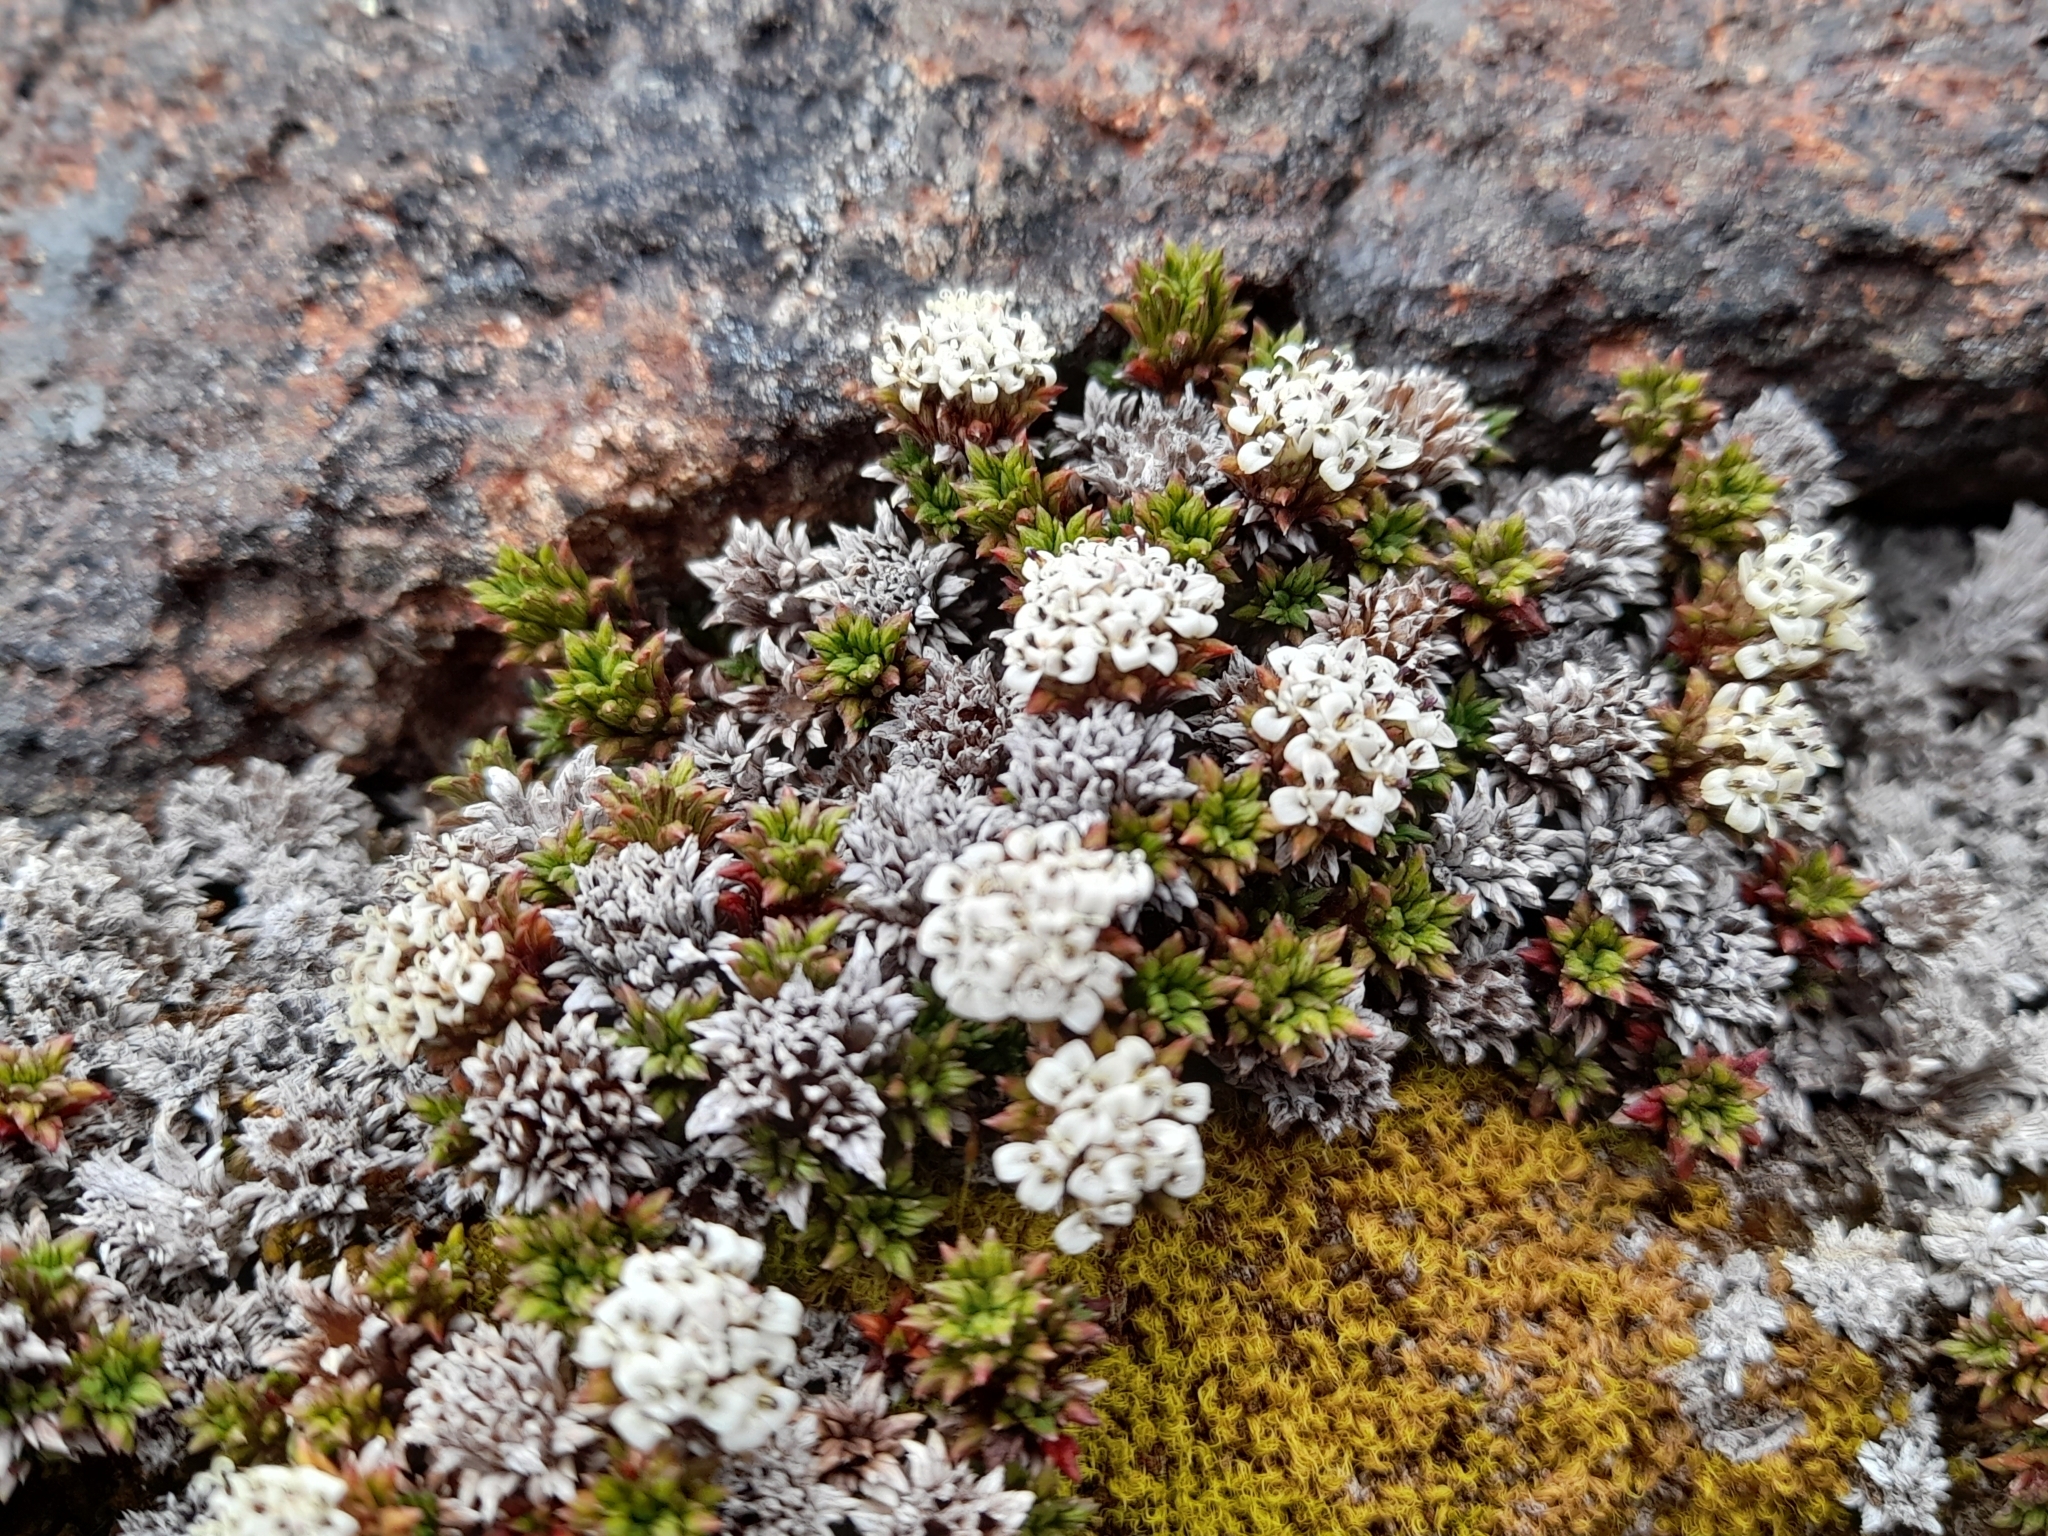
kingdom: Plantae
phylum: Tracheophyta
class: Magnoliopsida
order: Asterales
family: Asteraceae
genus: Nassauvia
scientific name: Nassauvia pygmaea
